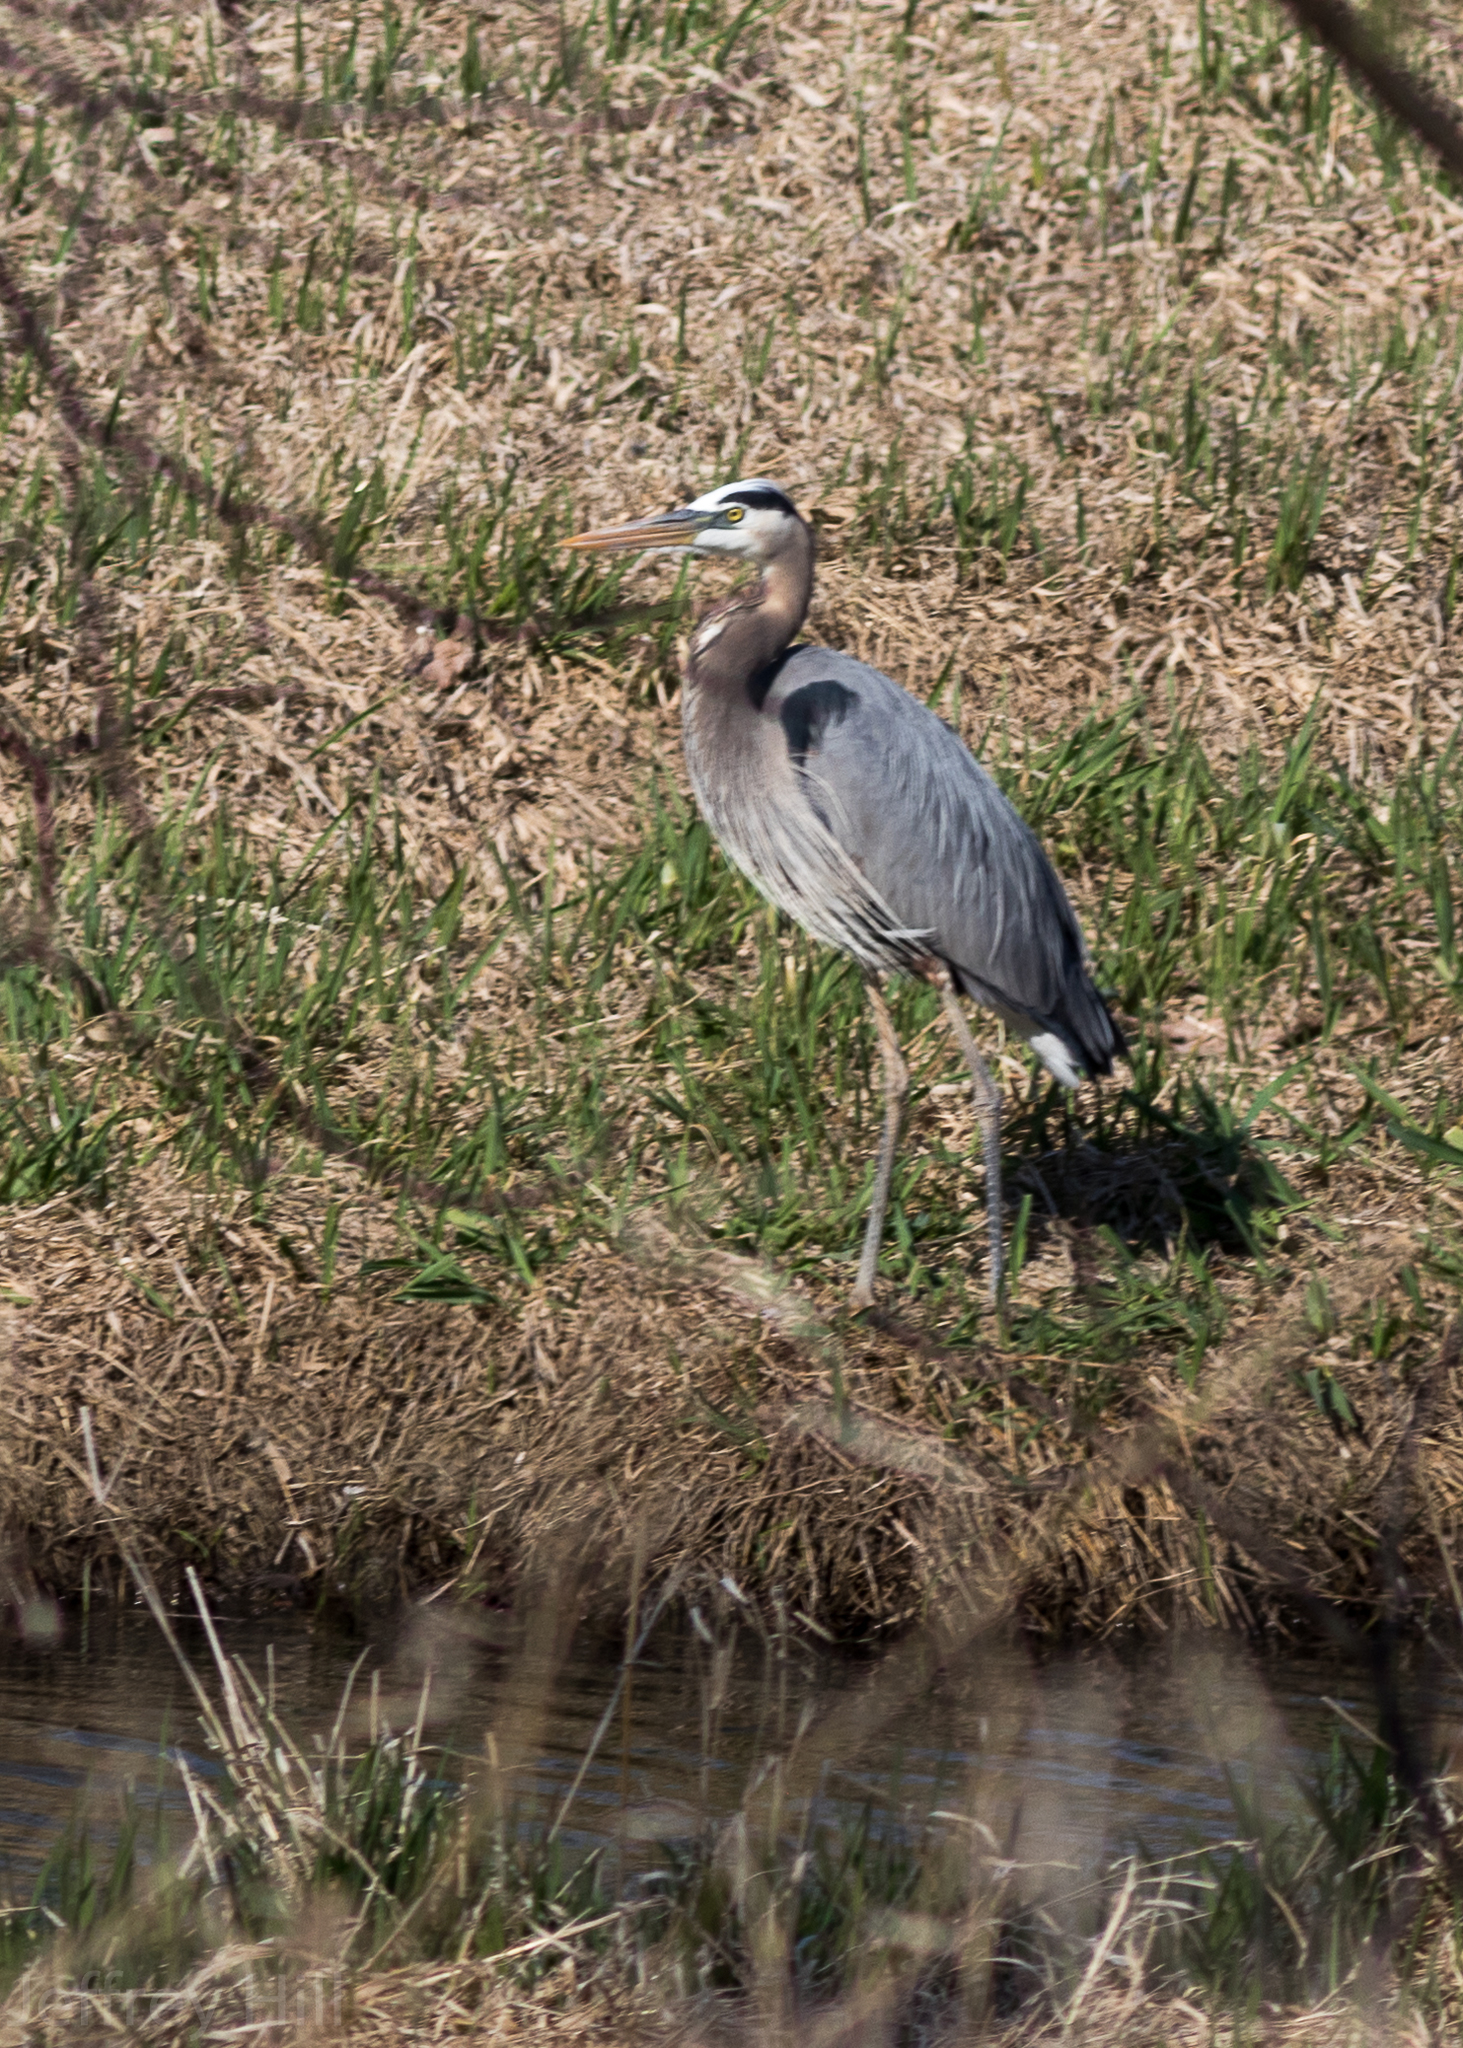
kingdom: Animalia
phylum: Chordata
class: Aves
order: Pelecaniformes
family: Ardeidae
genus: Ardea
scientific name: Ardea herodias
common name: Great blue heron
